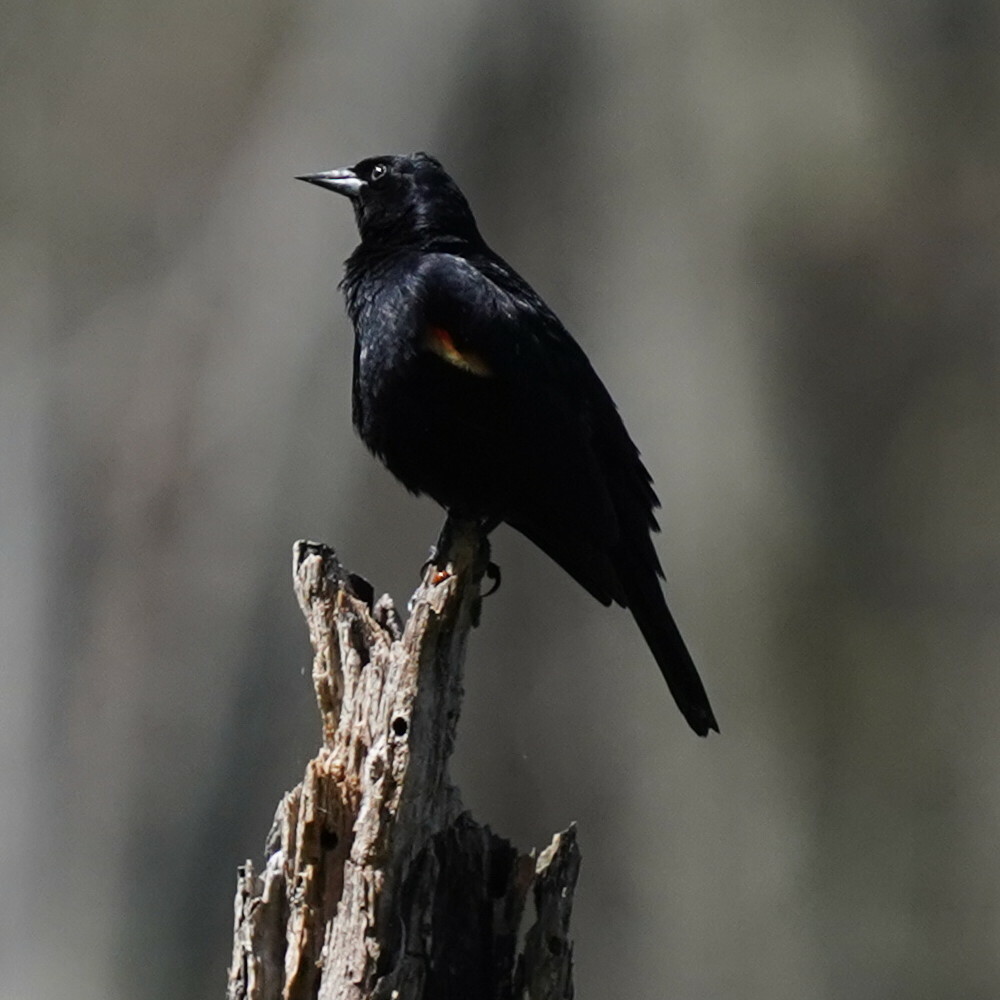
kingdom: Animalia
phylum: Chordata
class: Aves
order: Passeriformes
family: Icteridae
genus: Agelaius
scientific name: Agelaius phoeniceus
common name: Red-winged blackbird
